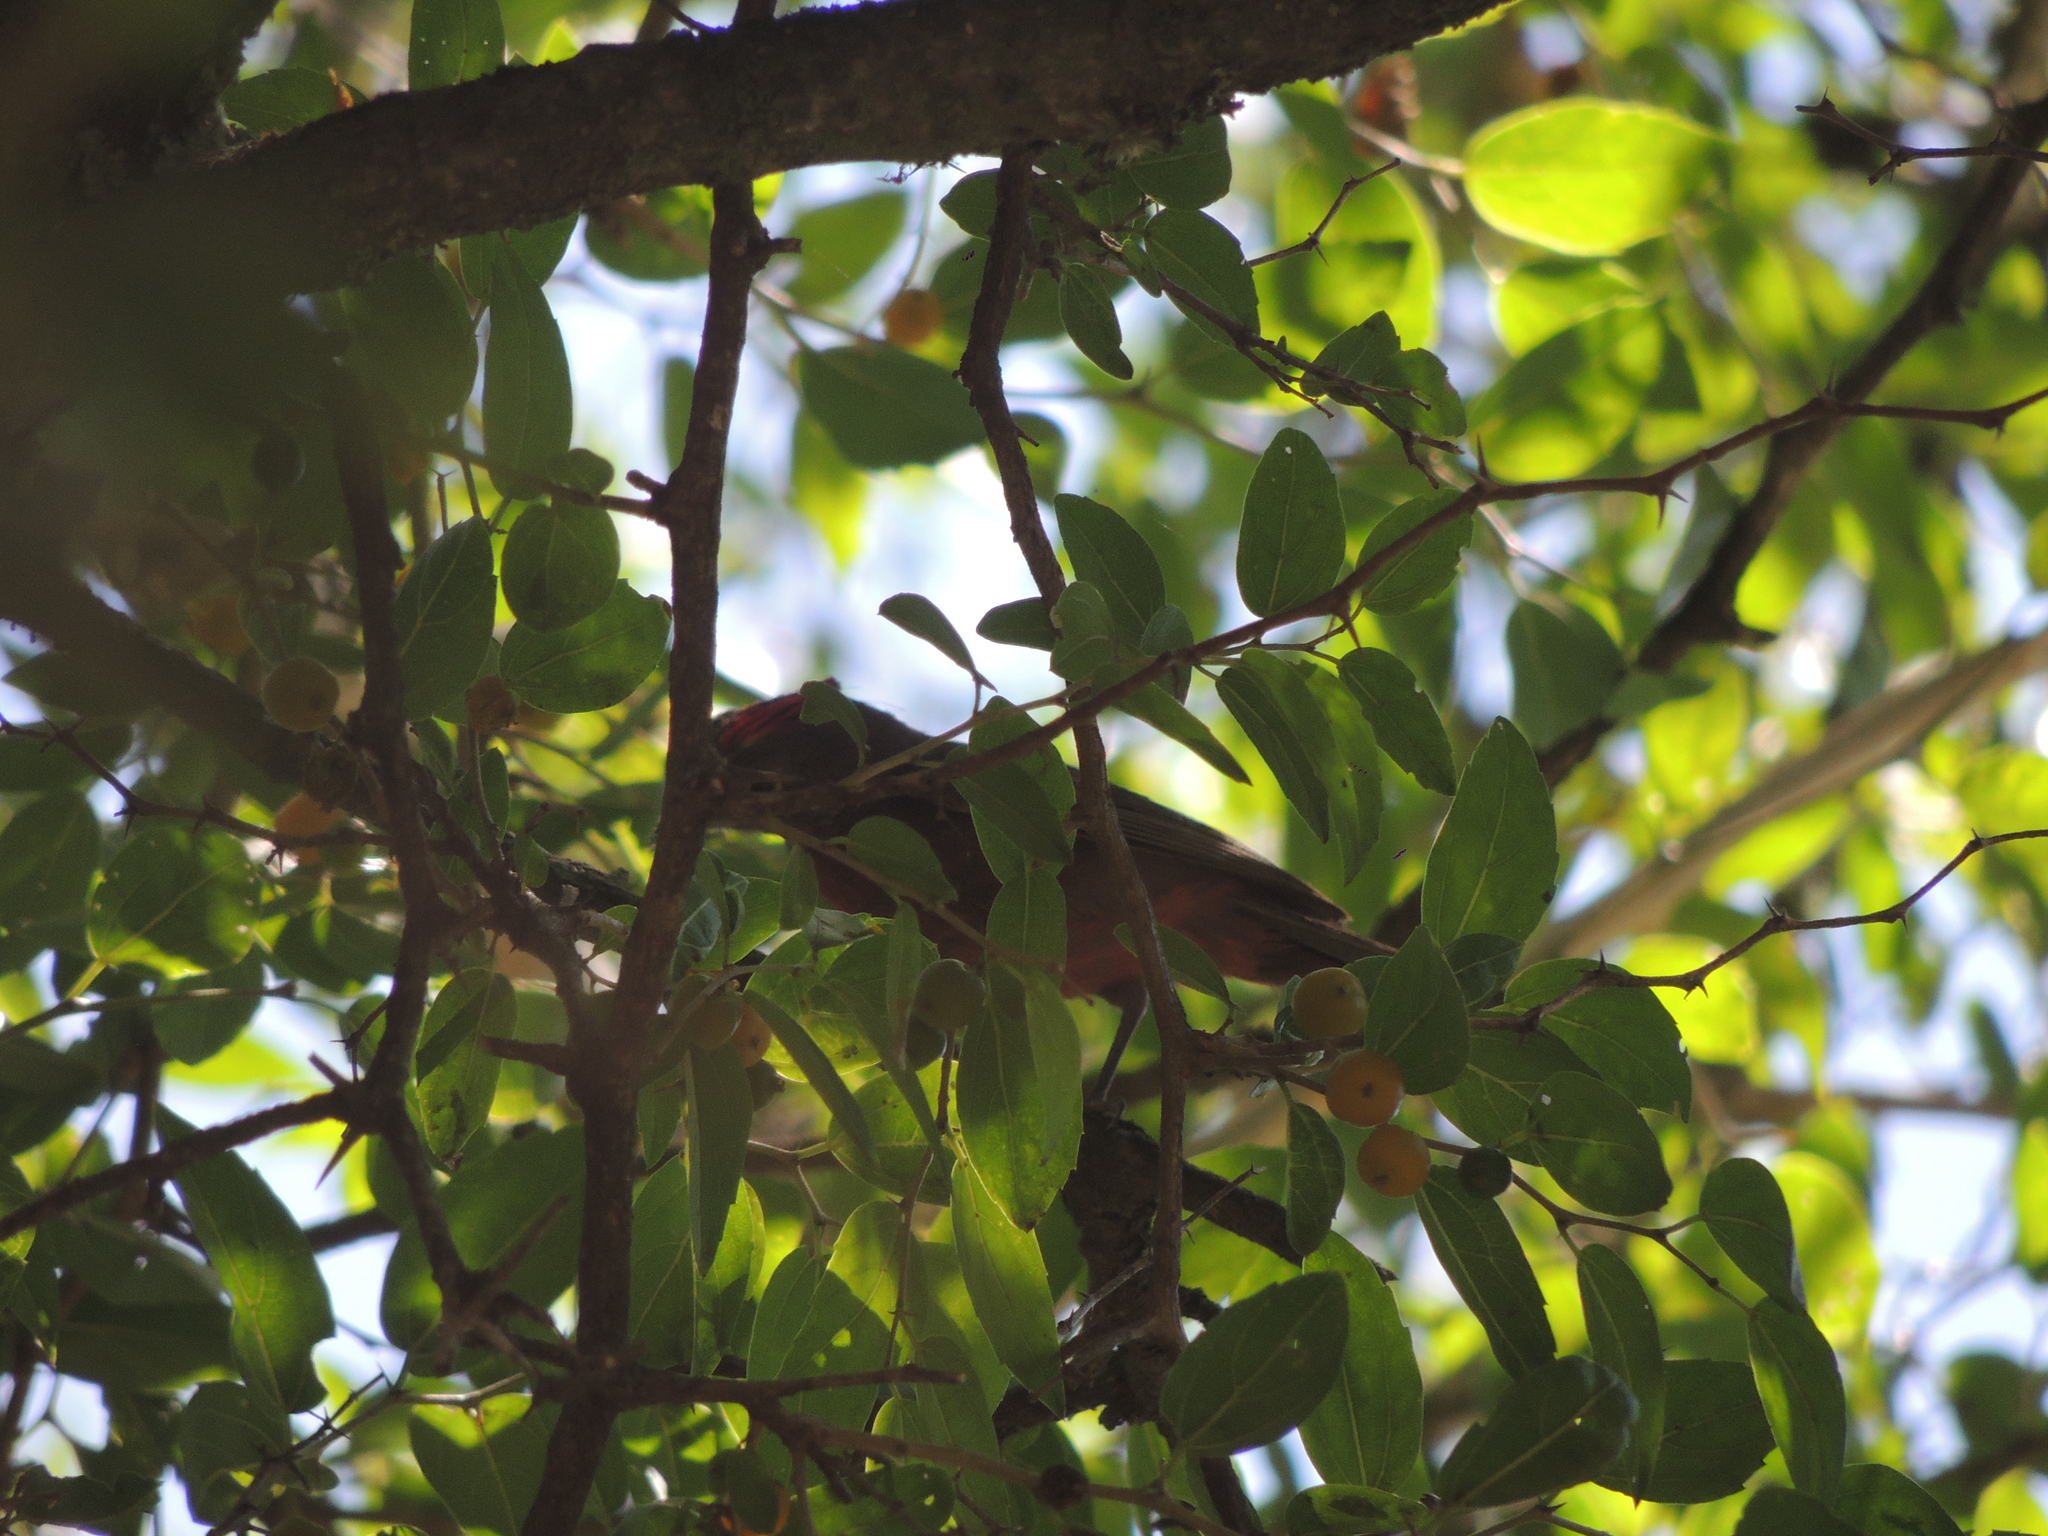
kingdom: Animalia
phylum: Chordata
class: Aves
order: Passeriformes
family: Thraupidae
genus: Coryphospingus
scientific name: Coryphospingus cucullatus
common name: Red pileated finch
